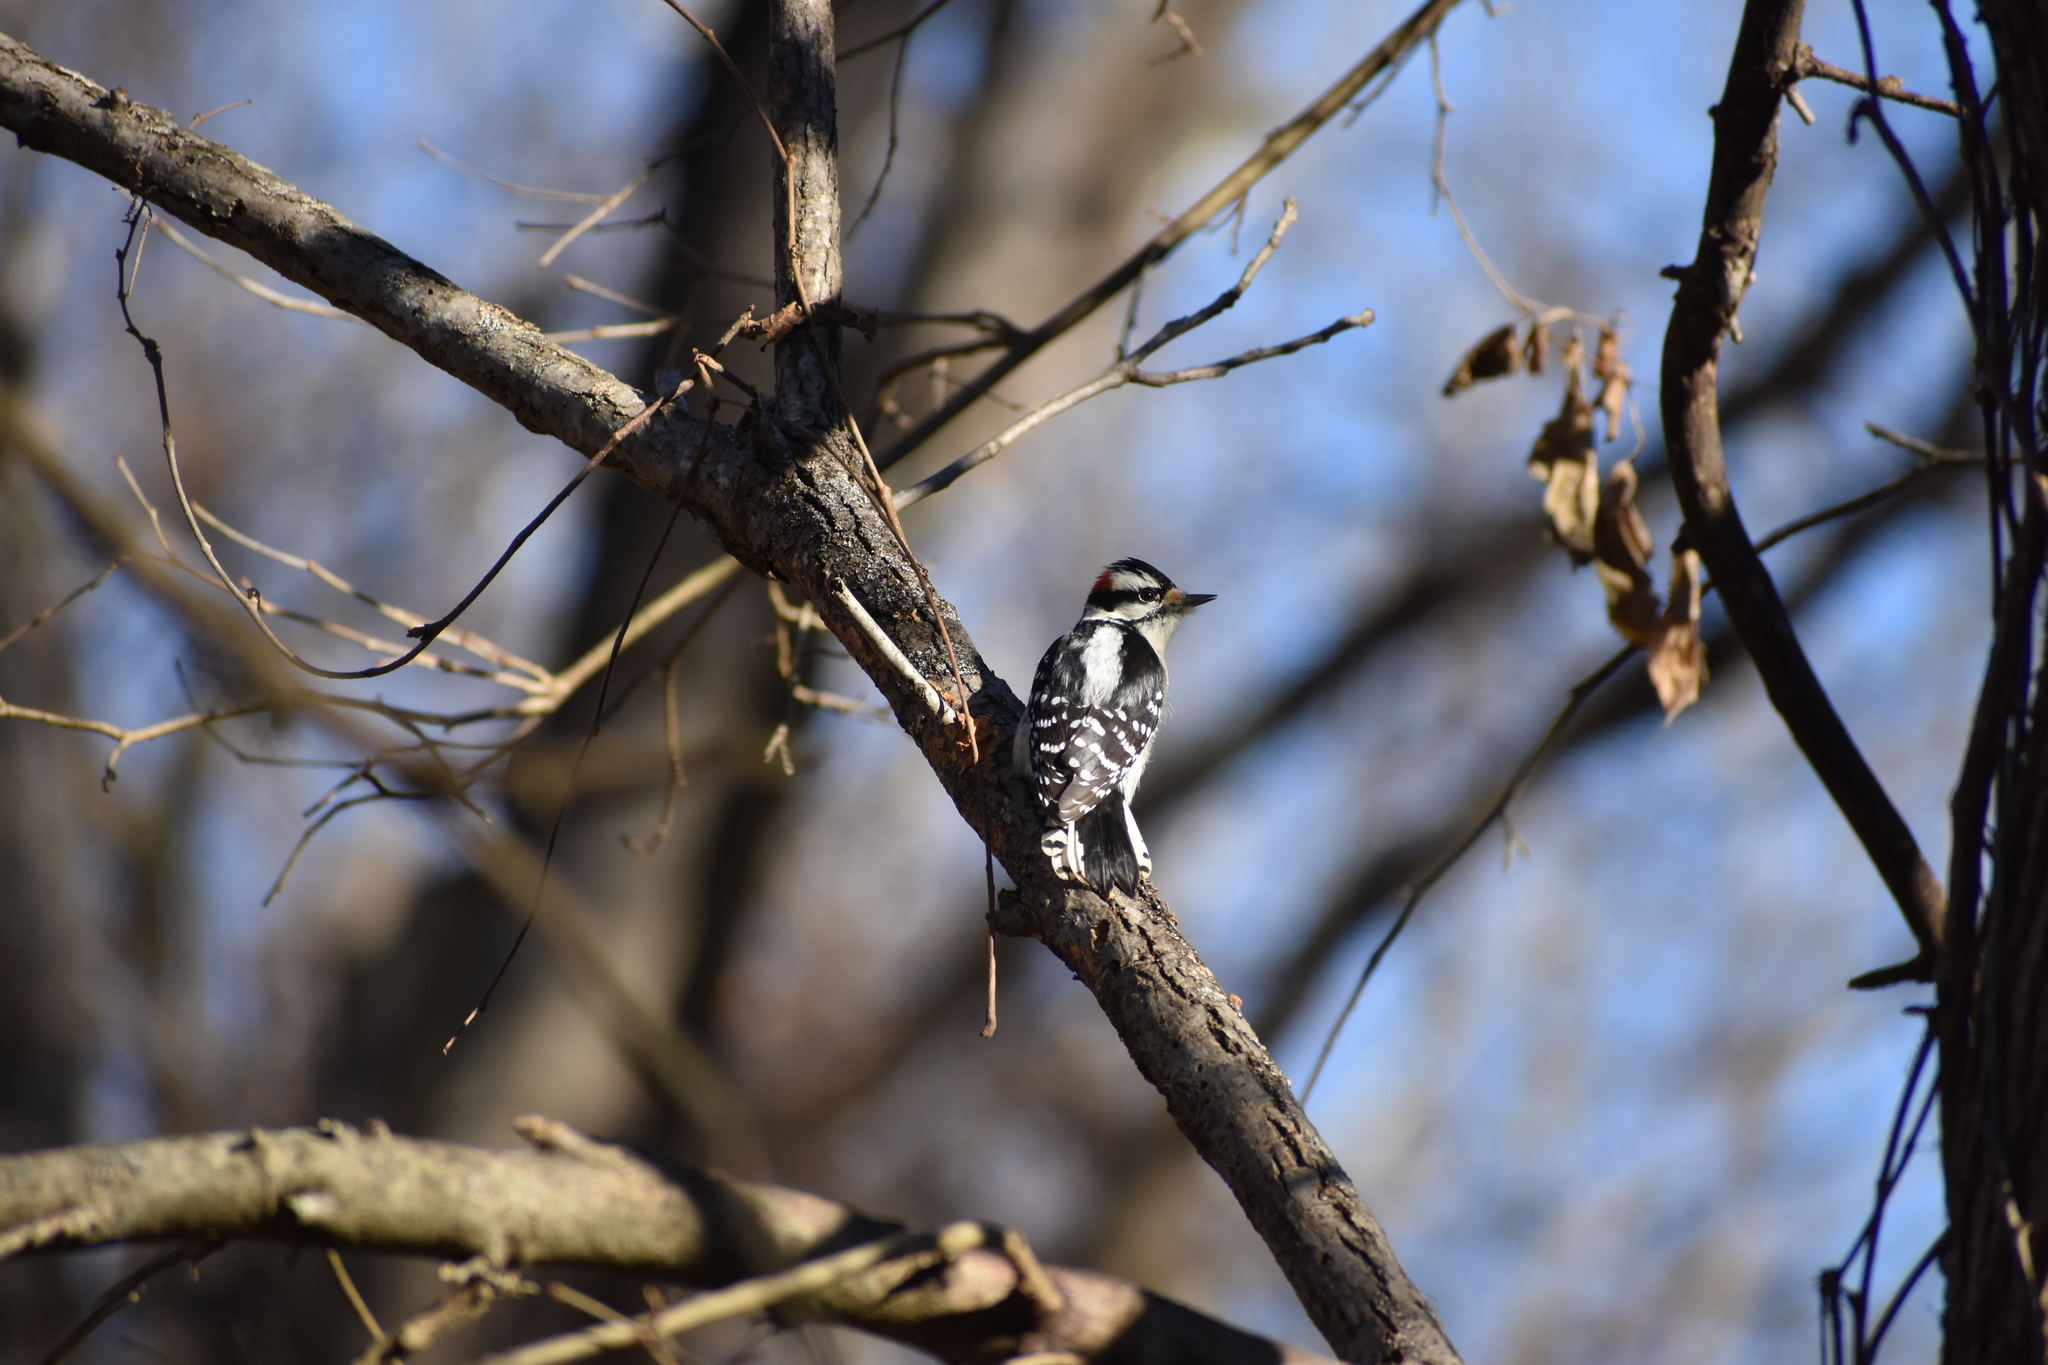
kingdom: Animalia
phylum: Chordata
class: Aves
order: Piciformes
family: Picidae
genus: Dryobates
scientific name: Dryobates pubescens
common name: Downy woodpecker
